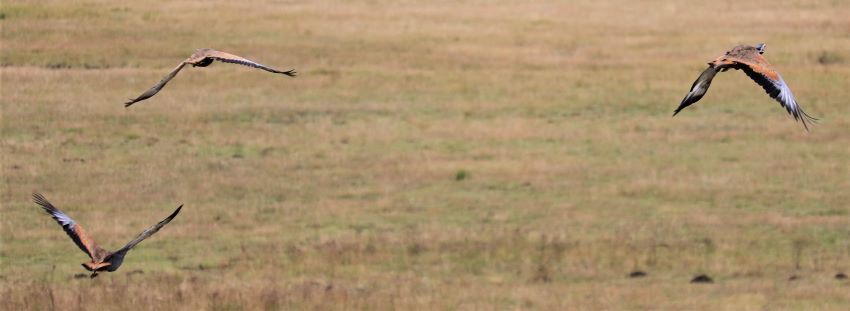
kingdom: Animalia
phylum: Chordata
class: Aves
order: Otidiformes
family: Otididae
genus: Eupodotis
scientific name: Eupodotis caerulescens
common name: Blue korhaan
